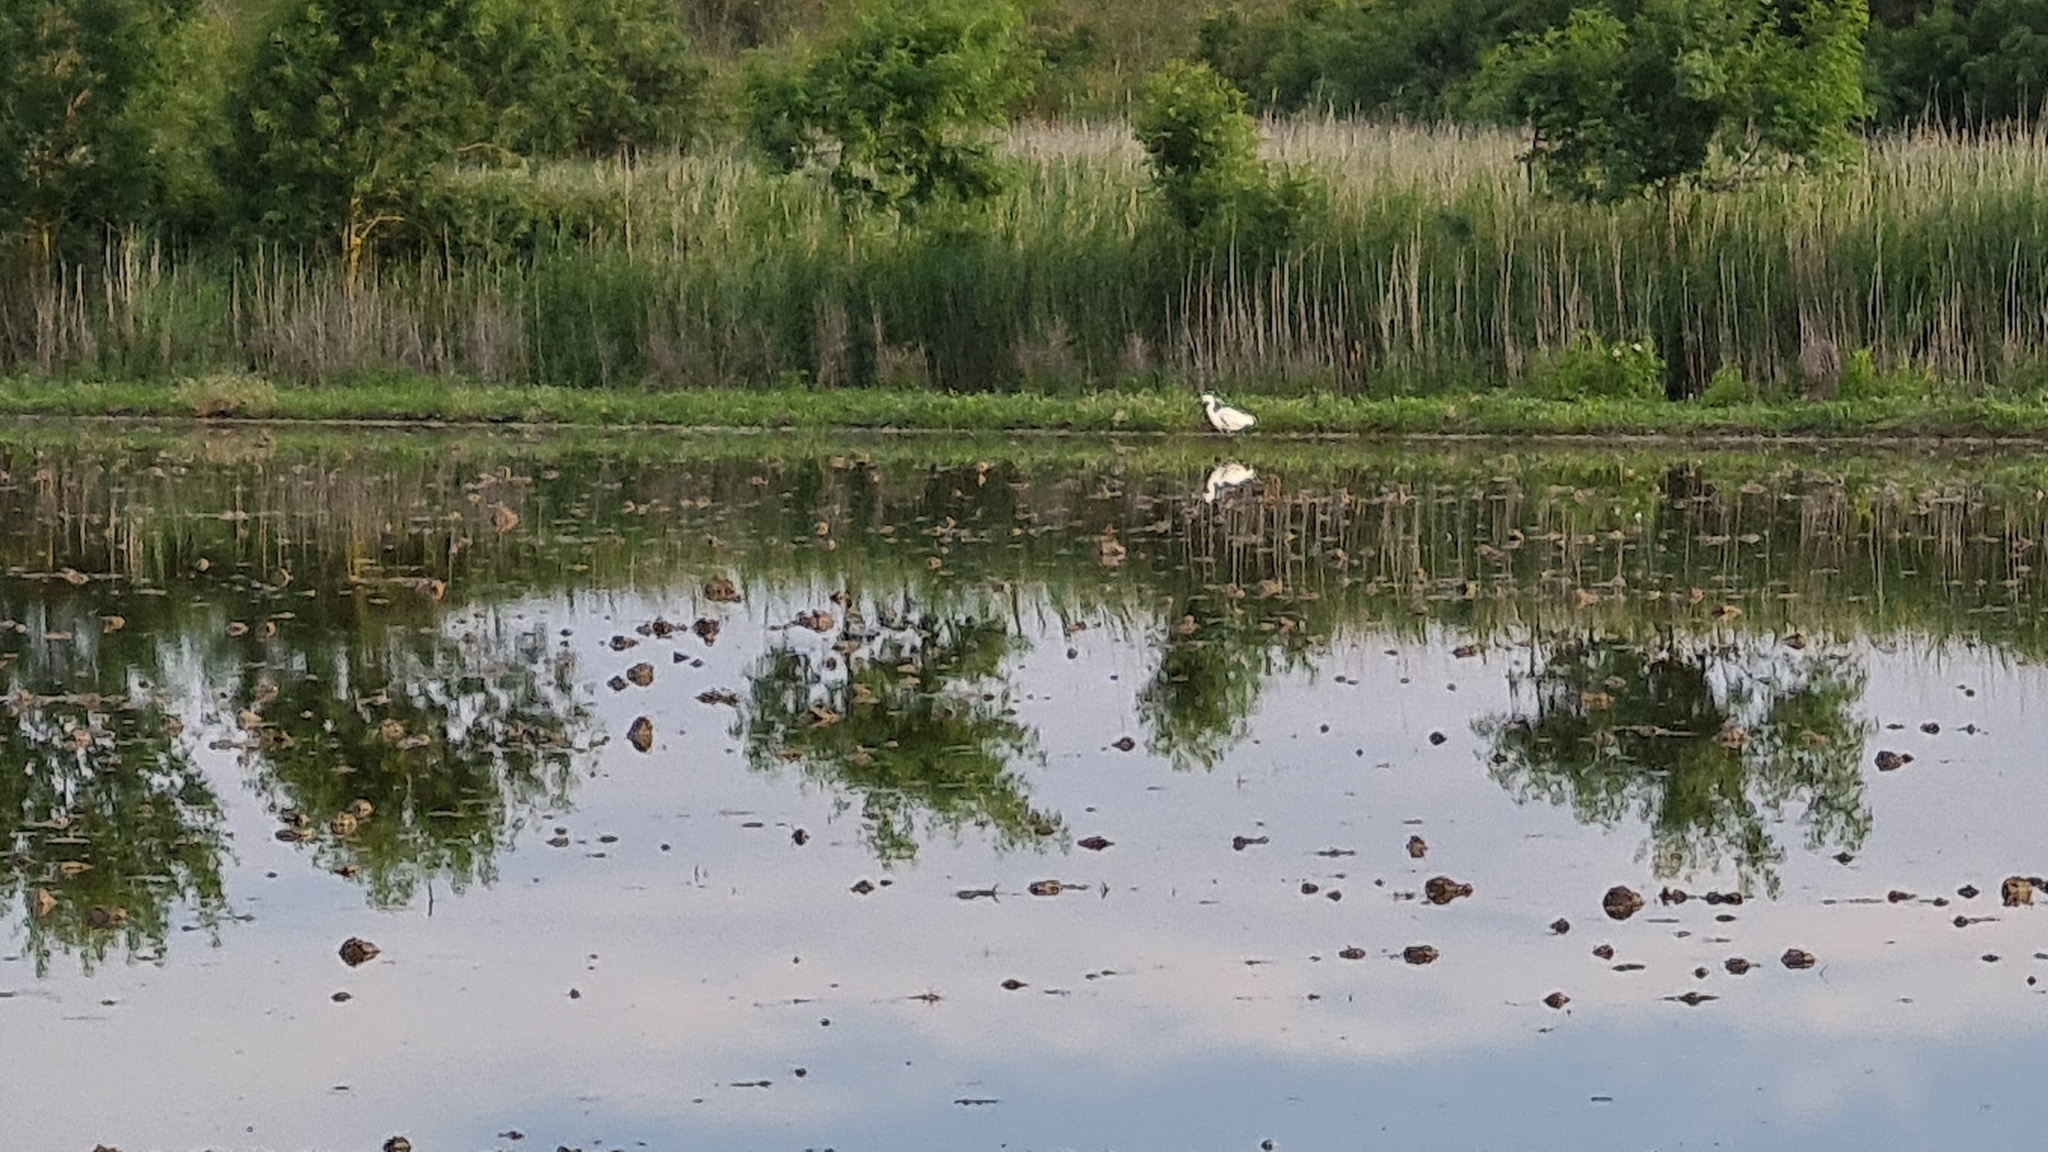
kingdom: Animalia
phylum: Chordata
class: Aves
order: Pelecaniformes
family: Ardeidae
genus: Egretta
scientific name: Egretta garzetta
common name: Little egret
